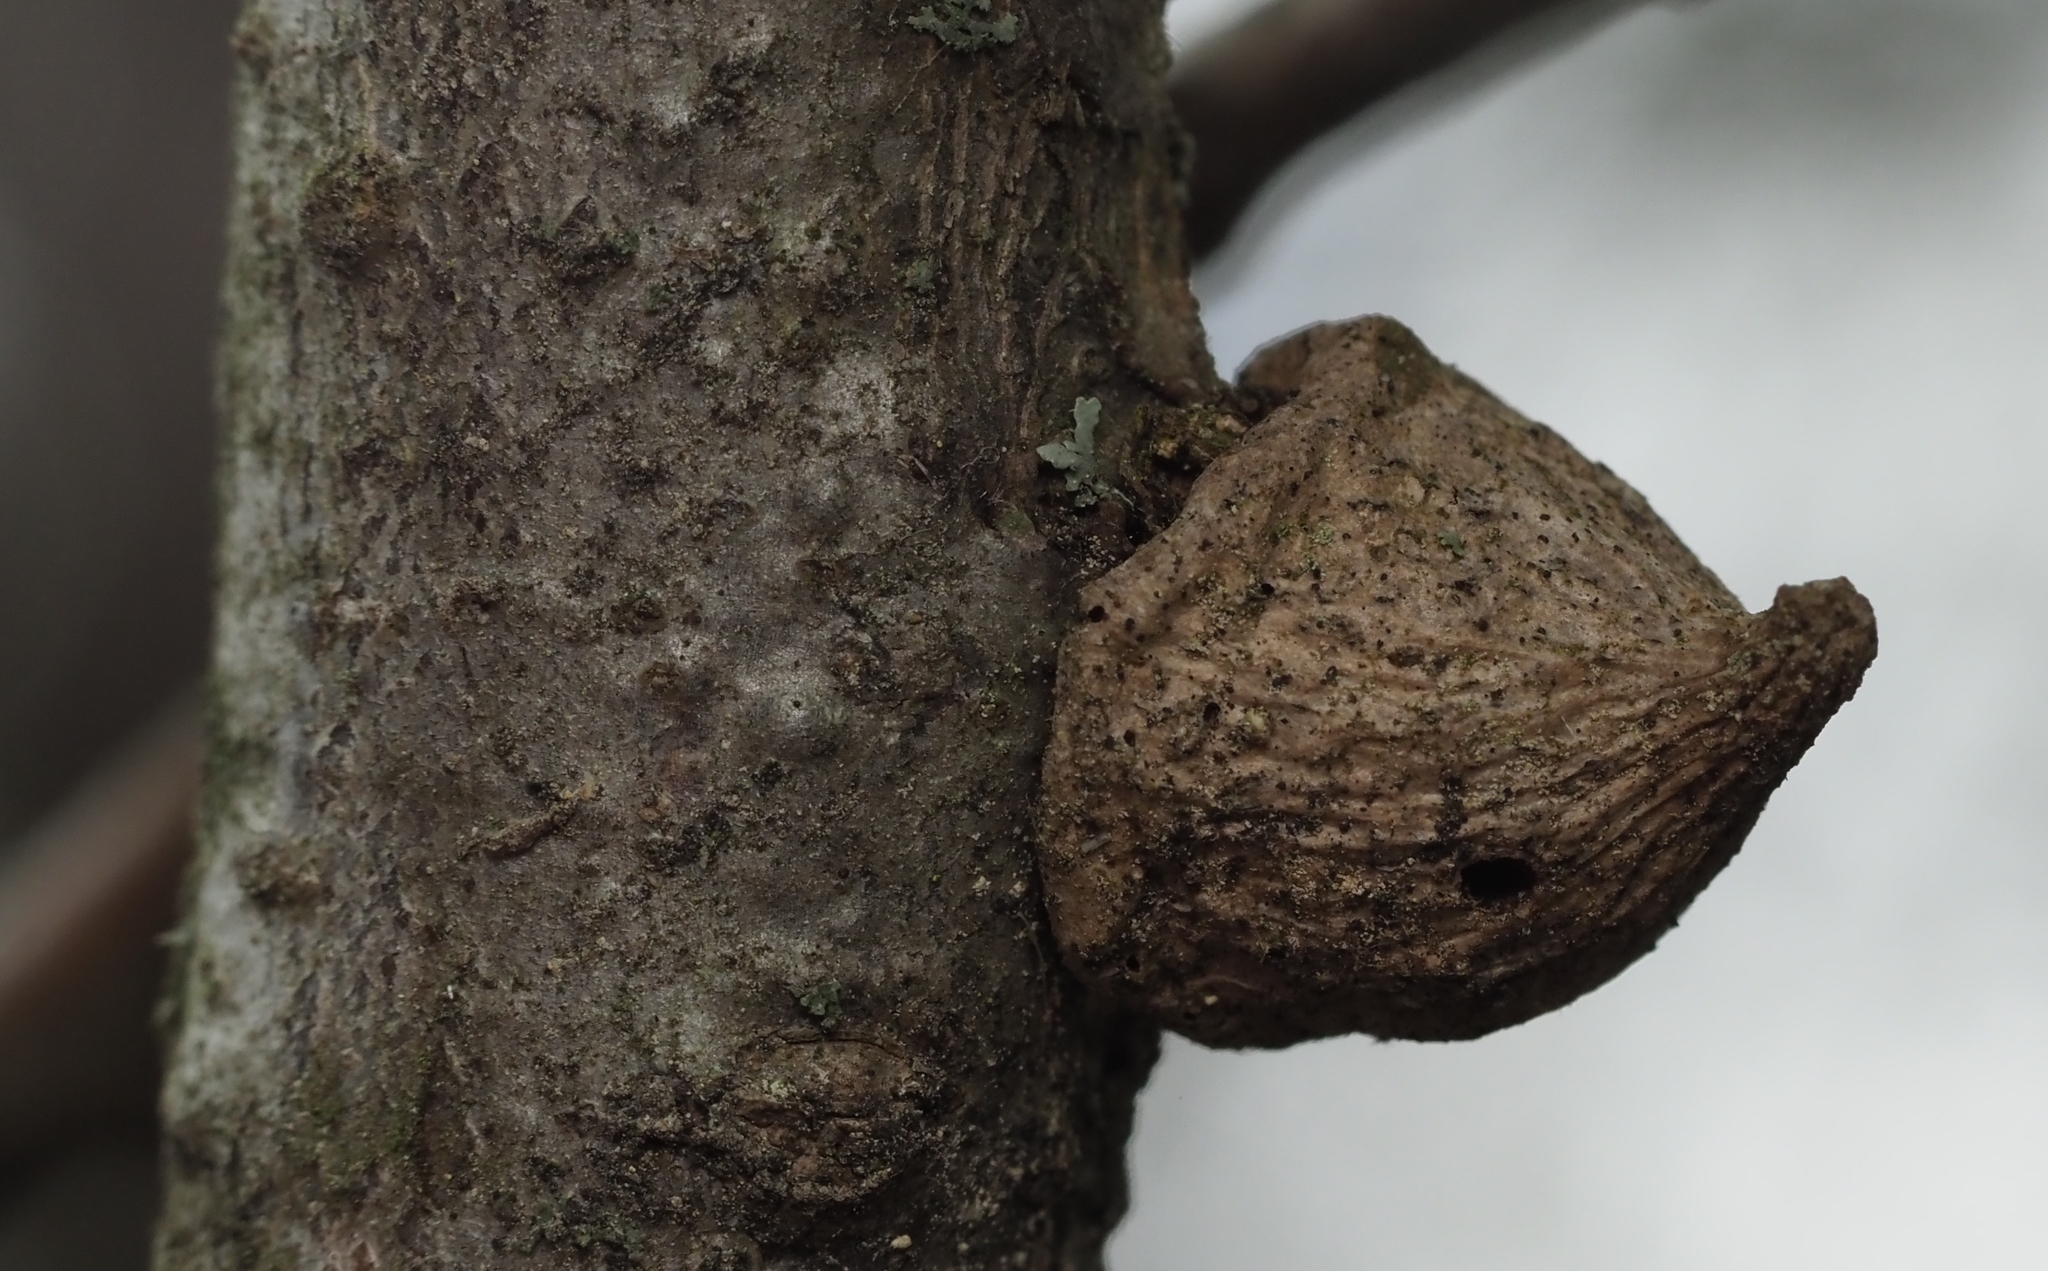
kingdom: Animalia
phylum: Arthropoda
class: Insecta
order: Hymenoptera
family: Cynipidae
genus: Callirhytis
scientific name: Callirhytis
